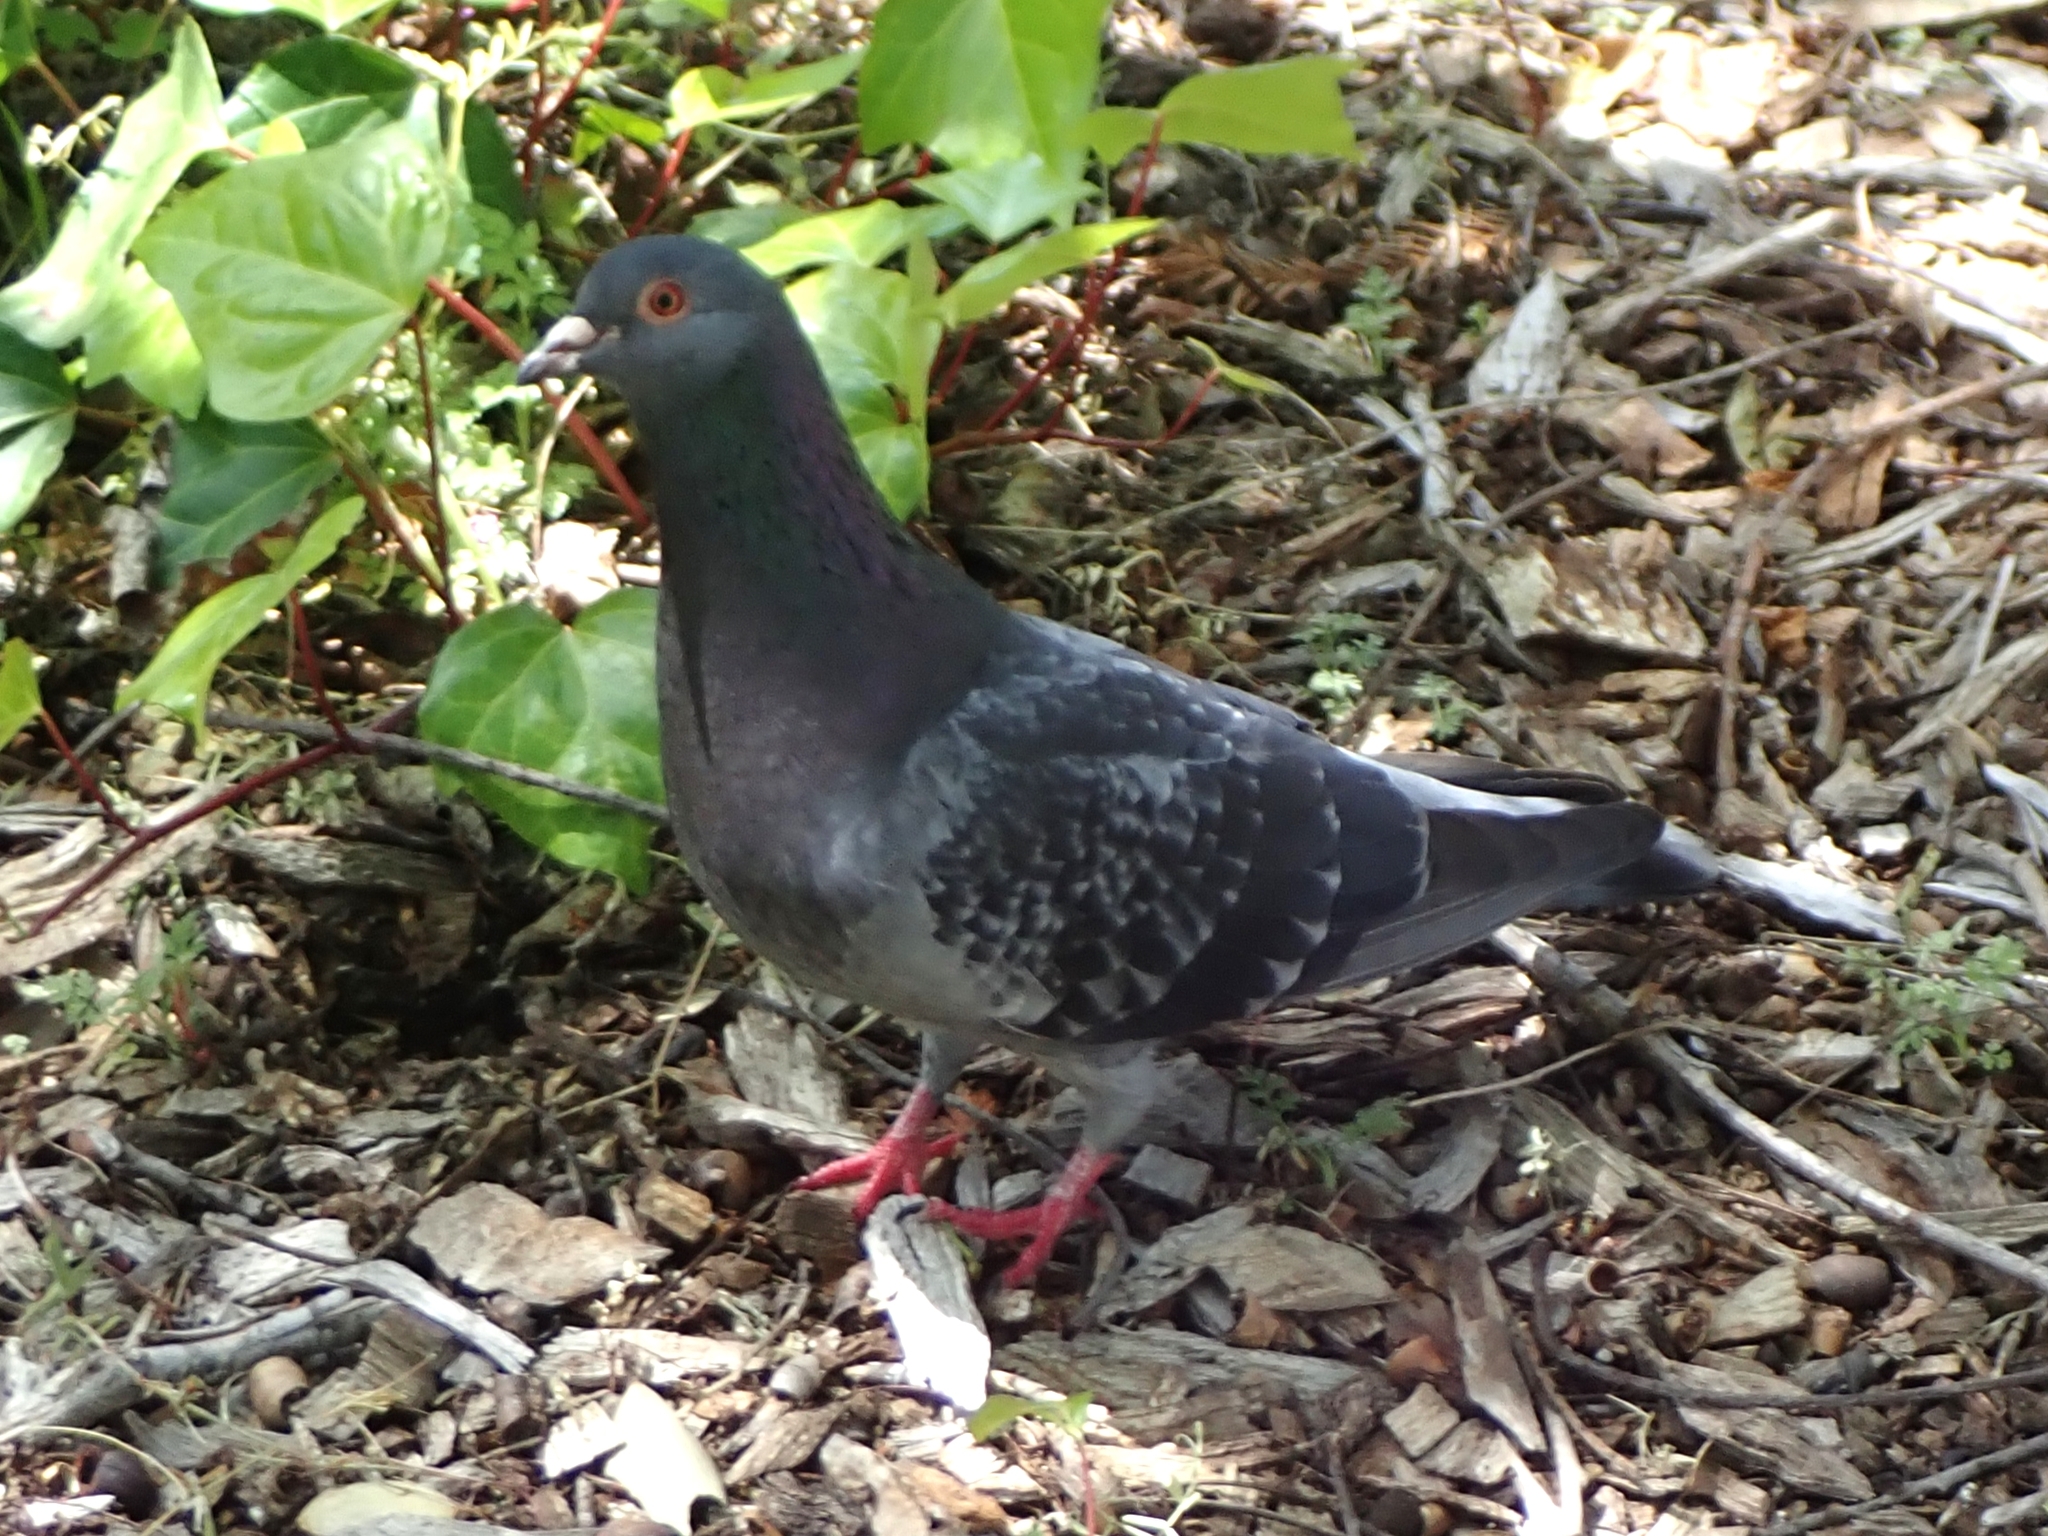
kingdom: Animalia
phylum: Chordata
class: Aves
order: Columbiformes
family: Columbidae
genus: Columba
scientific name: Columba livia
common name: Rock pigeon
